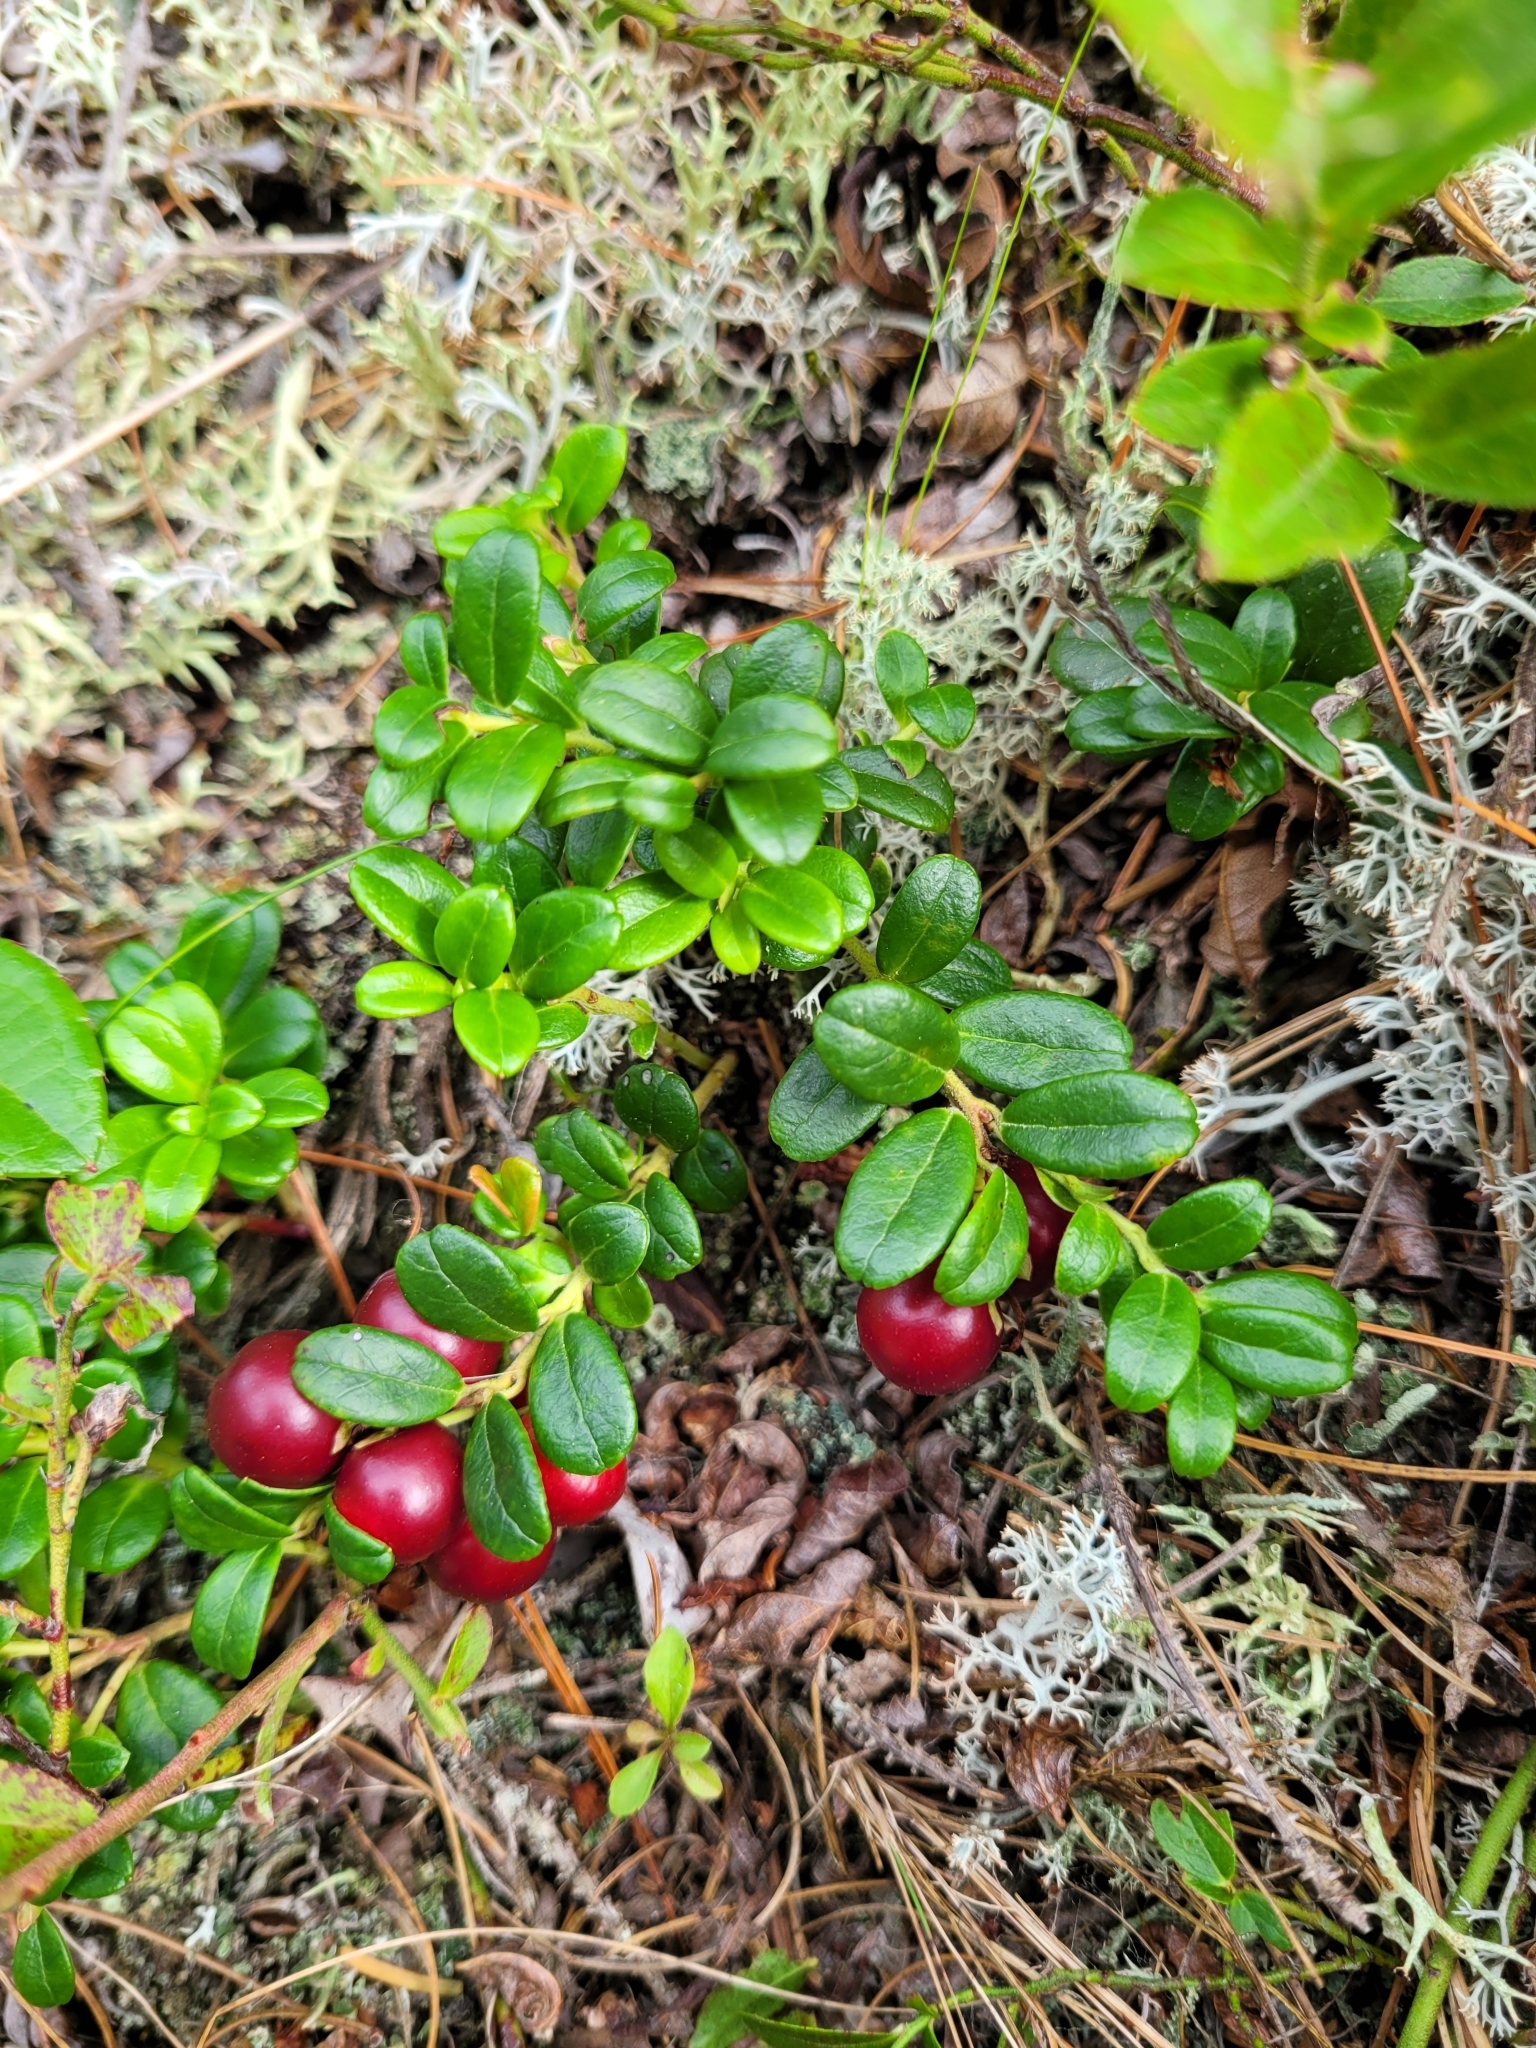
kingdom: Plantae
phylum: Tracheophyta
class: Magnoliopsida
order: Ericales
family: Ericaceae
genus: Vaccinium
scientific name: Vaccinium vitis-idaea
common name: Cowberry
